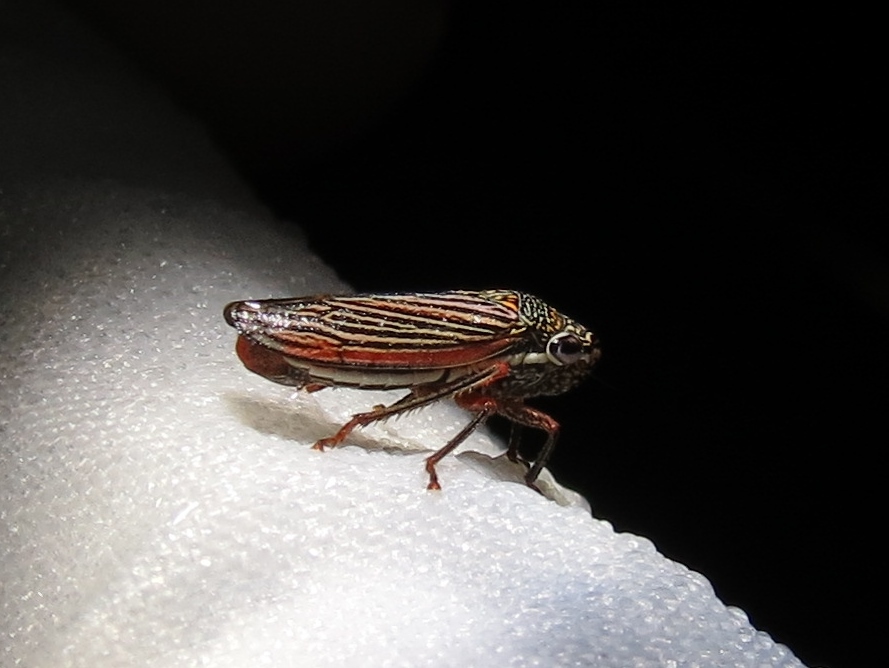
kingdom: Animalia
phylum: Arthropoda
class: Insecta
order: Hemiptera
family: Cicadellidae
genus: Cuerna
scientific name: Cuerna costalis
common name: Lateral-lined sharpshooter
